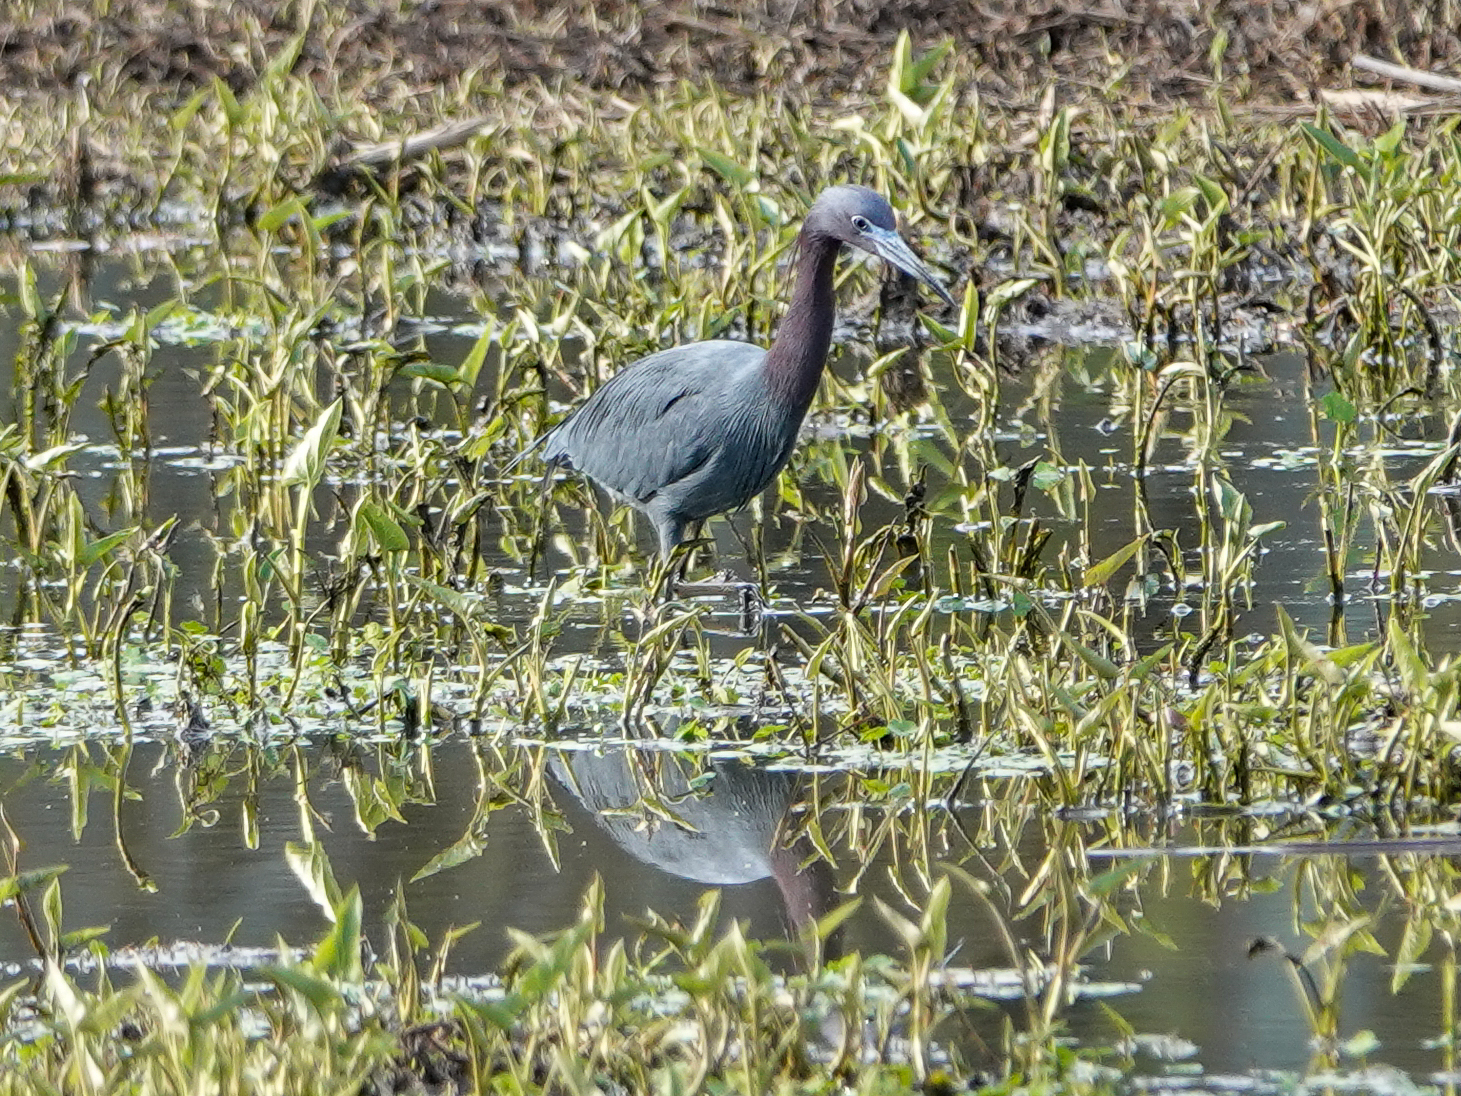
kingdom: Animalia
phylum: Chordata
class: Aves
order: Pelecaniformes
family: Ardeidae
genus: Egretta
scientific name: Egretta caerulea
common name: Little blue heron
